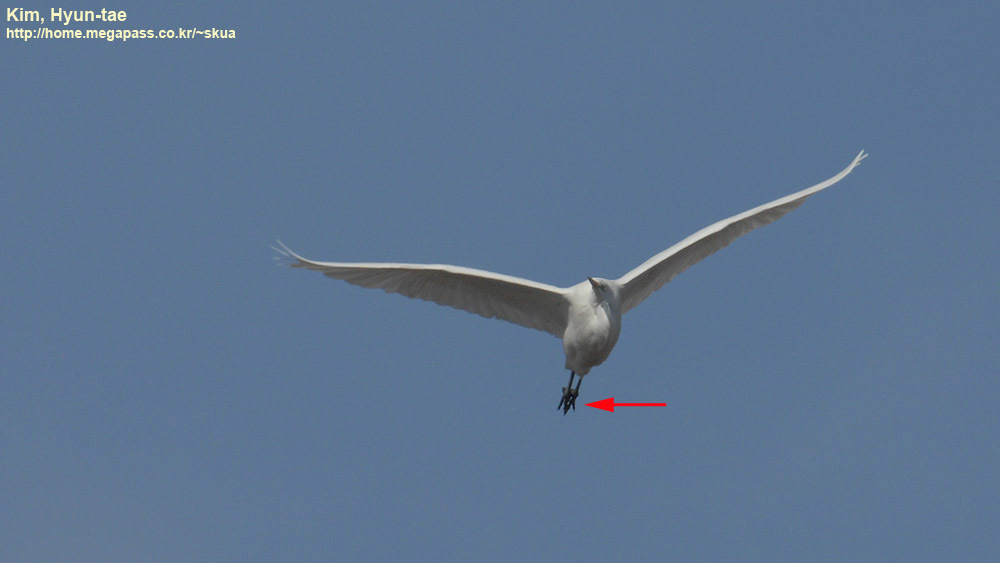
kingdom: Animalia
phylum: Chordata
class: Aves
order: Pelecaniformes
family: Ardeidae
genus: Ardea
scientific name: Ardea alba
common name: Great egret
